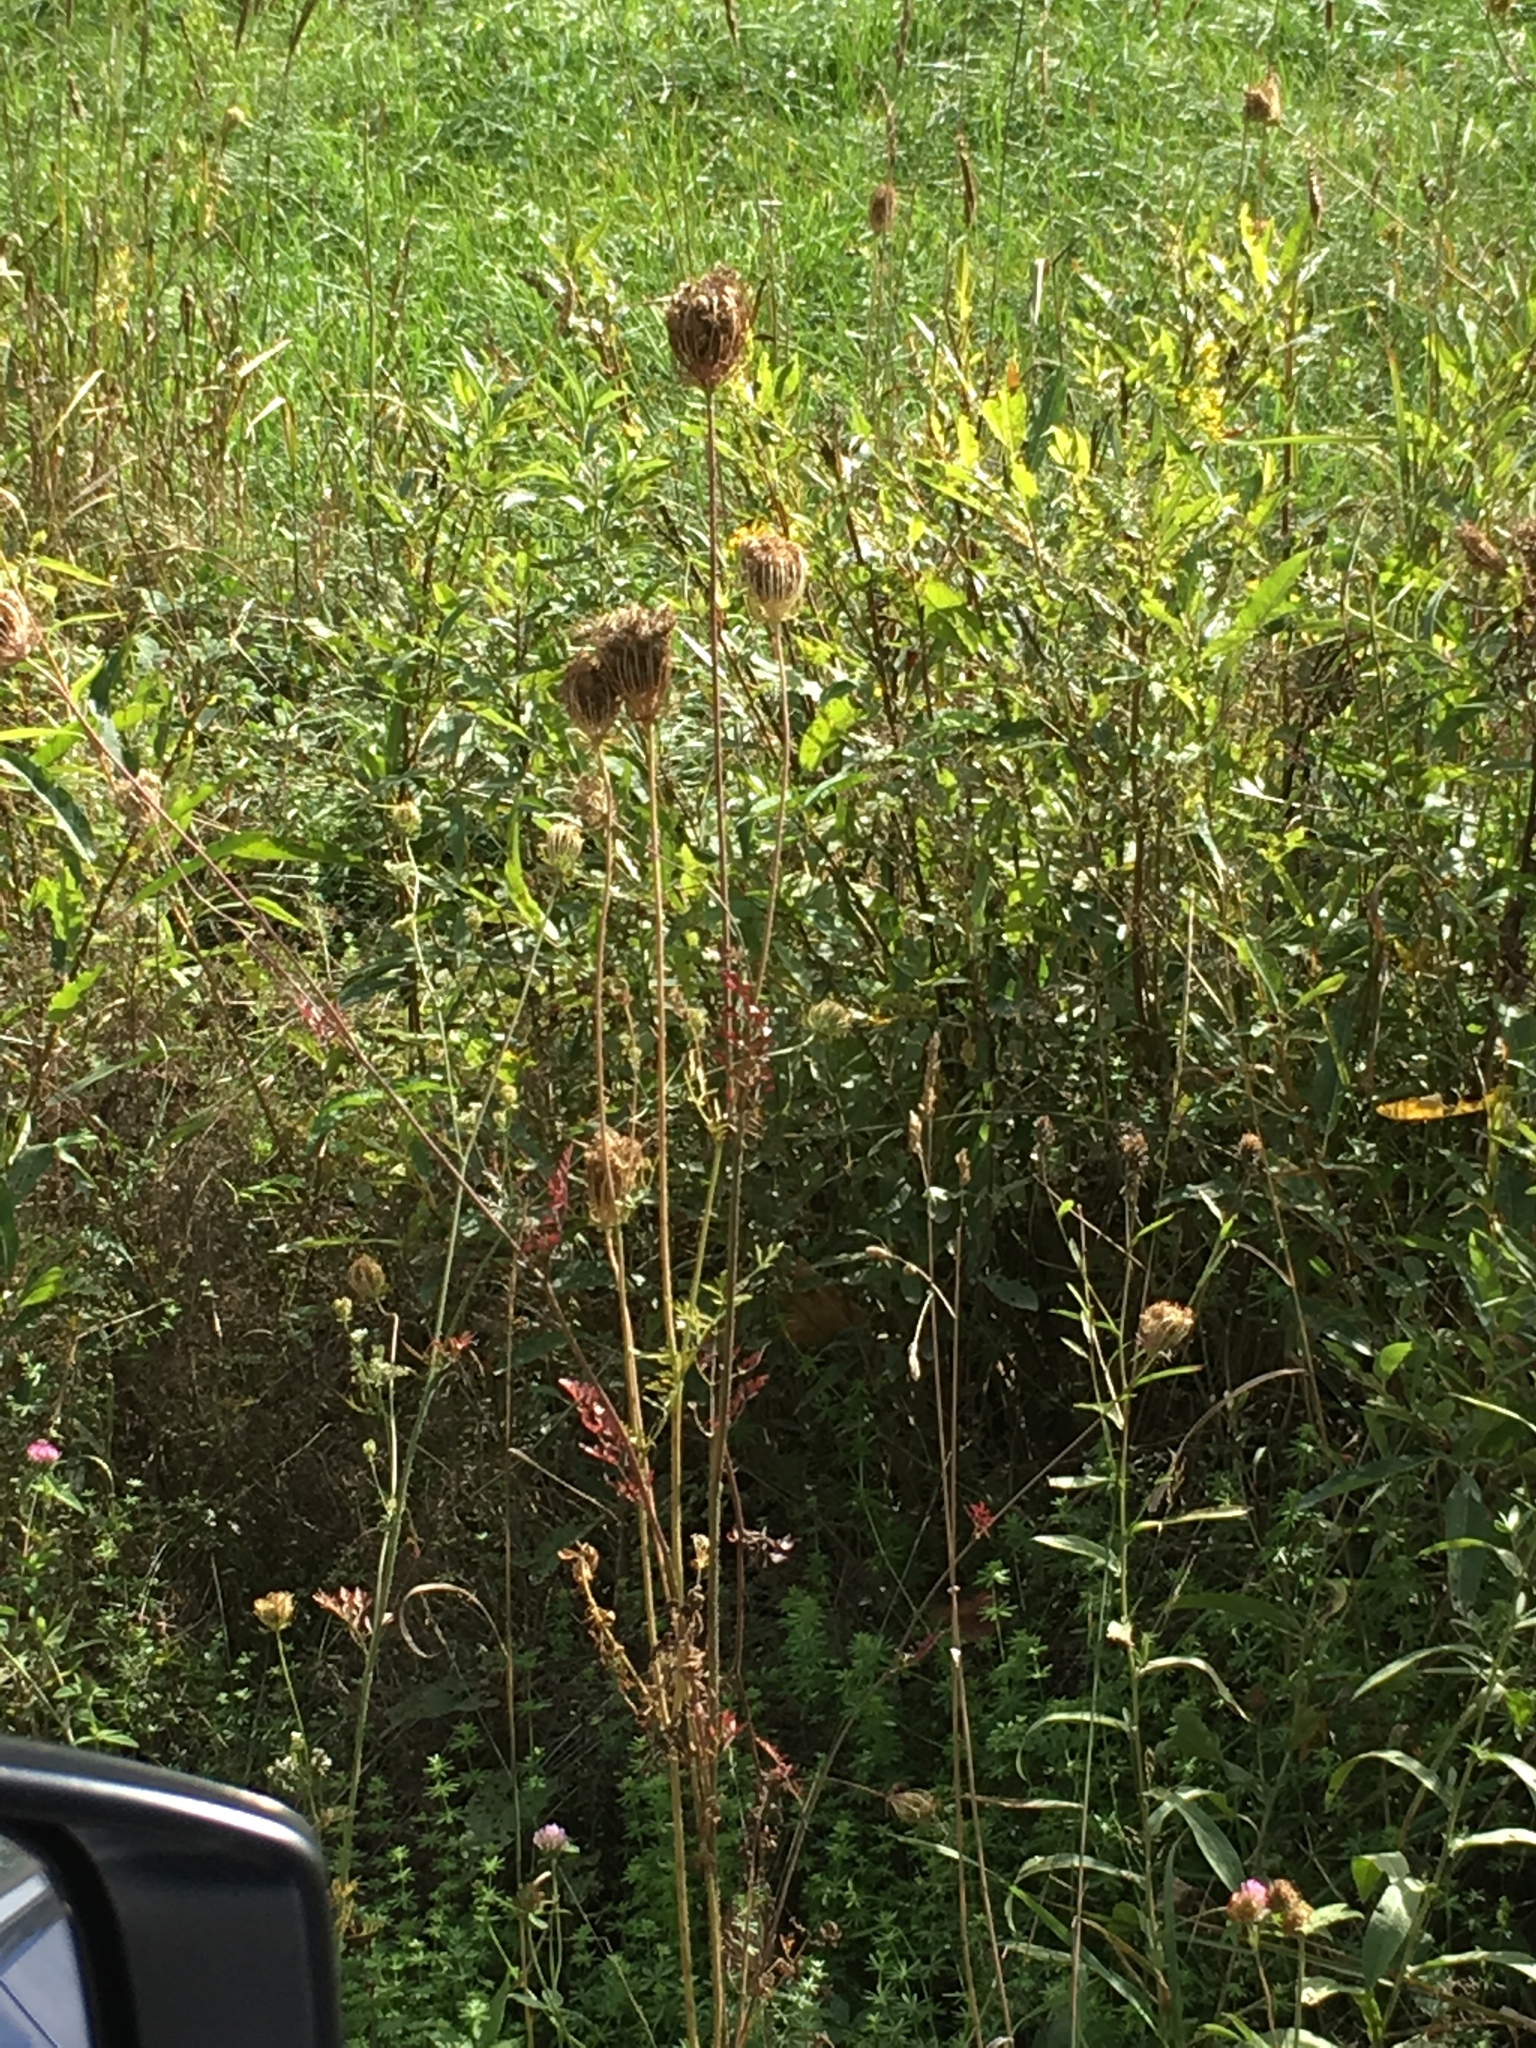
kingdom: Plantae
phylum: Tracheophyta
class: Magnoliopsida
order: Apiales
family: Apiaceae
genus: Daucus
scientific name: Daucus carota
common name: Wild carrot
